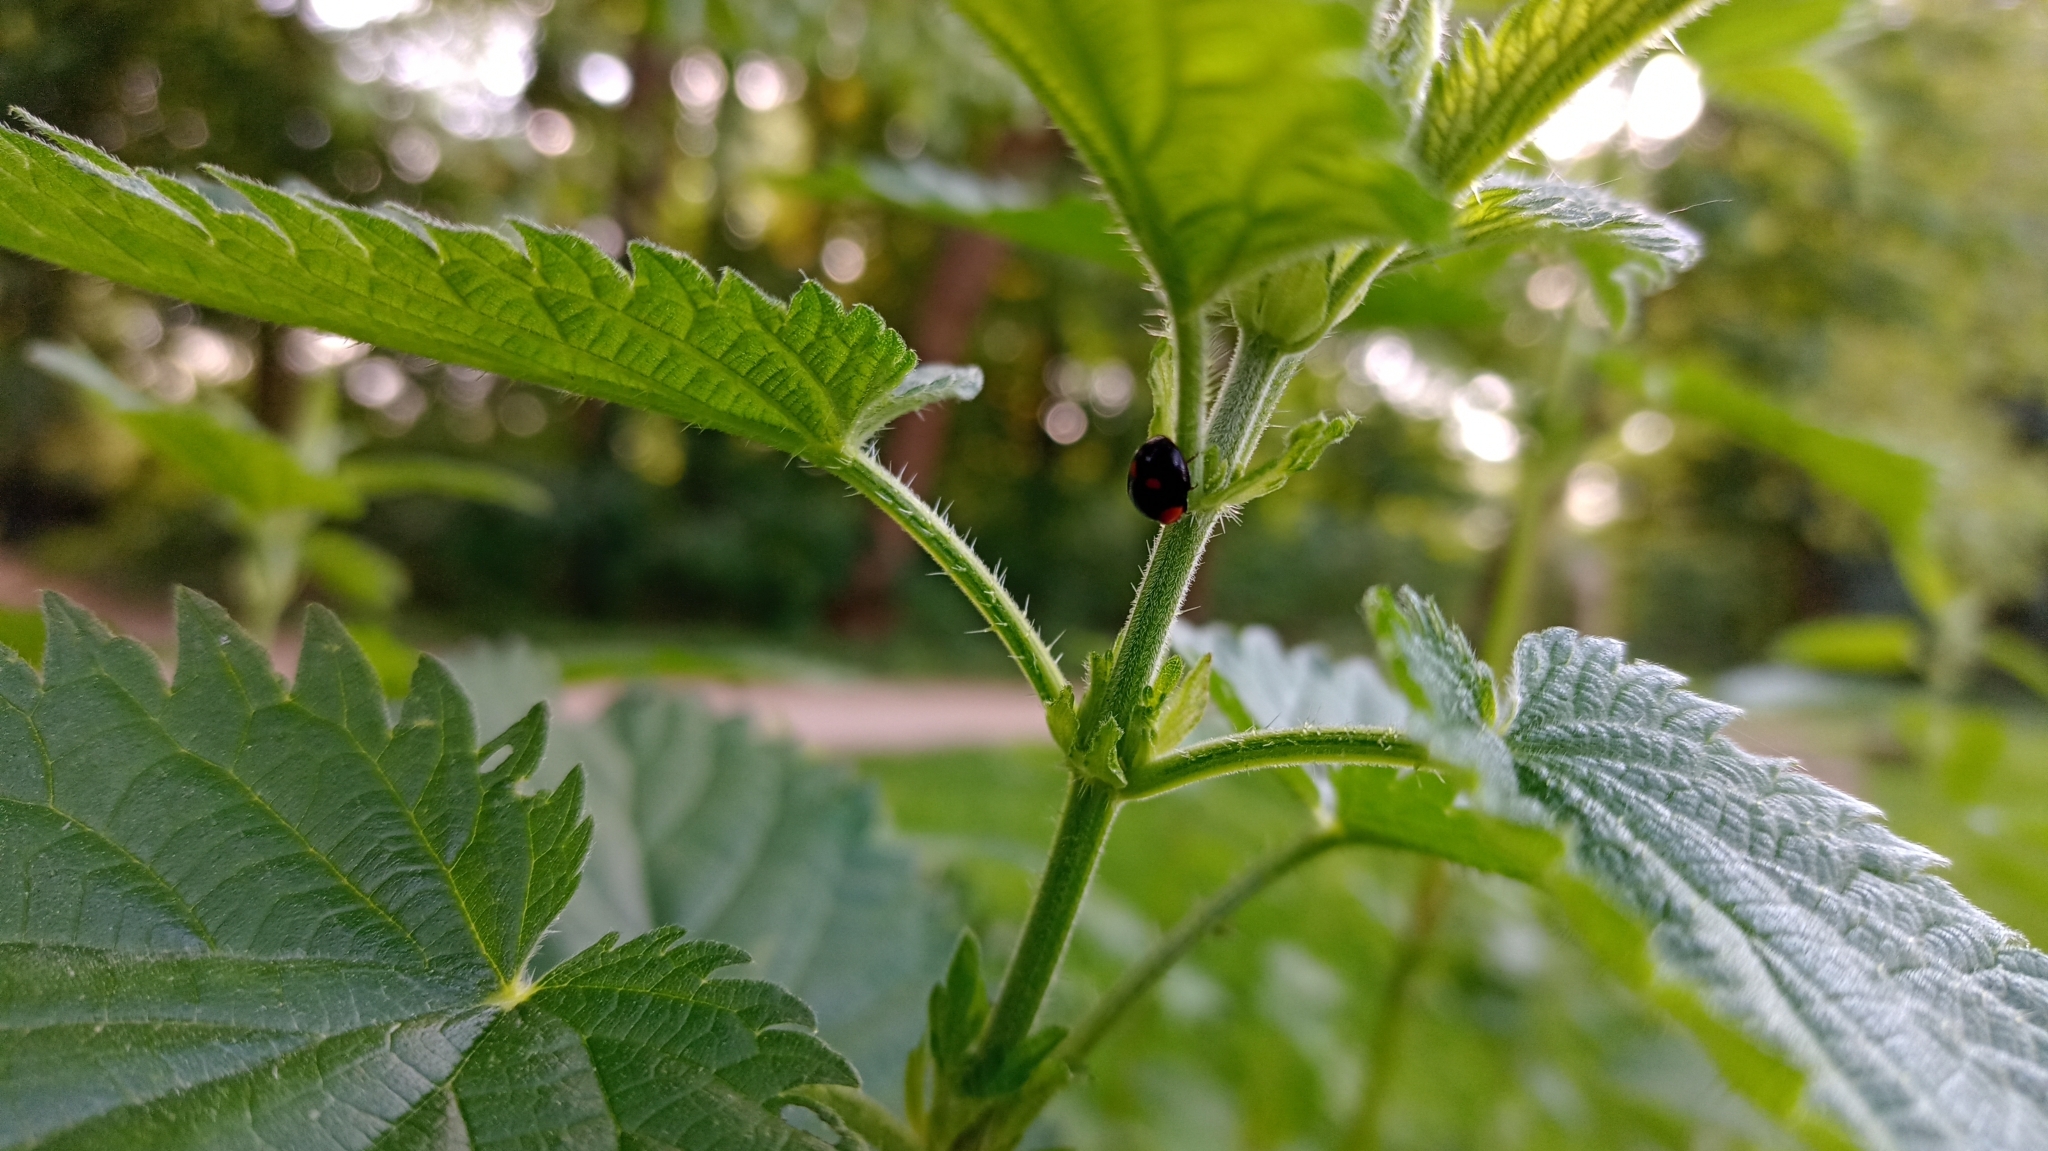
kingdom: Animalia
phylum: Arthropoda
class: Insecta
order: Coleoptera
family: Coccinellidae
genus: Adalia
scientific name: Adalia bipunctata
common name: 2-spot ladybird
